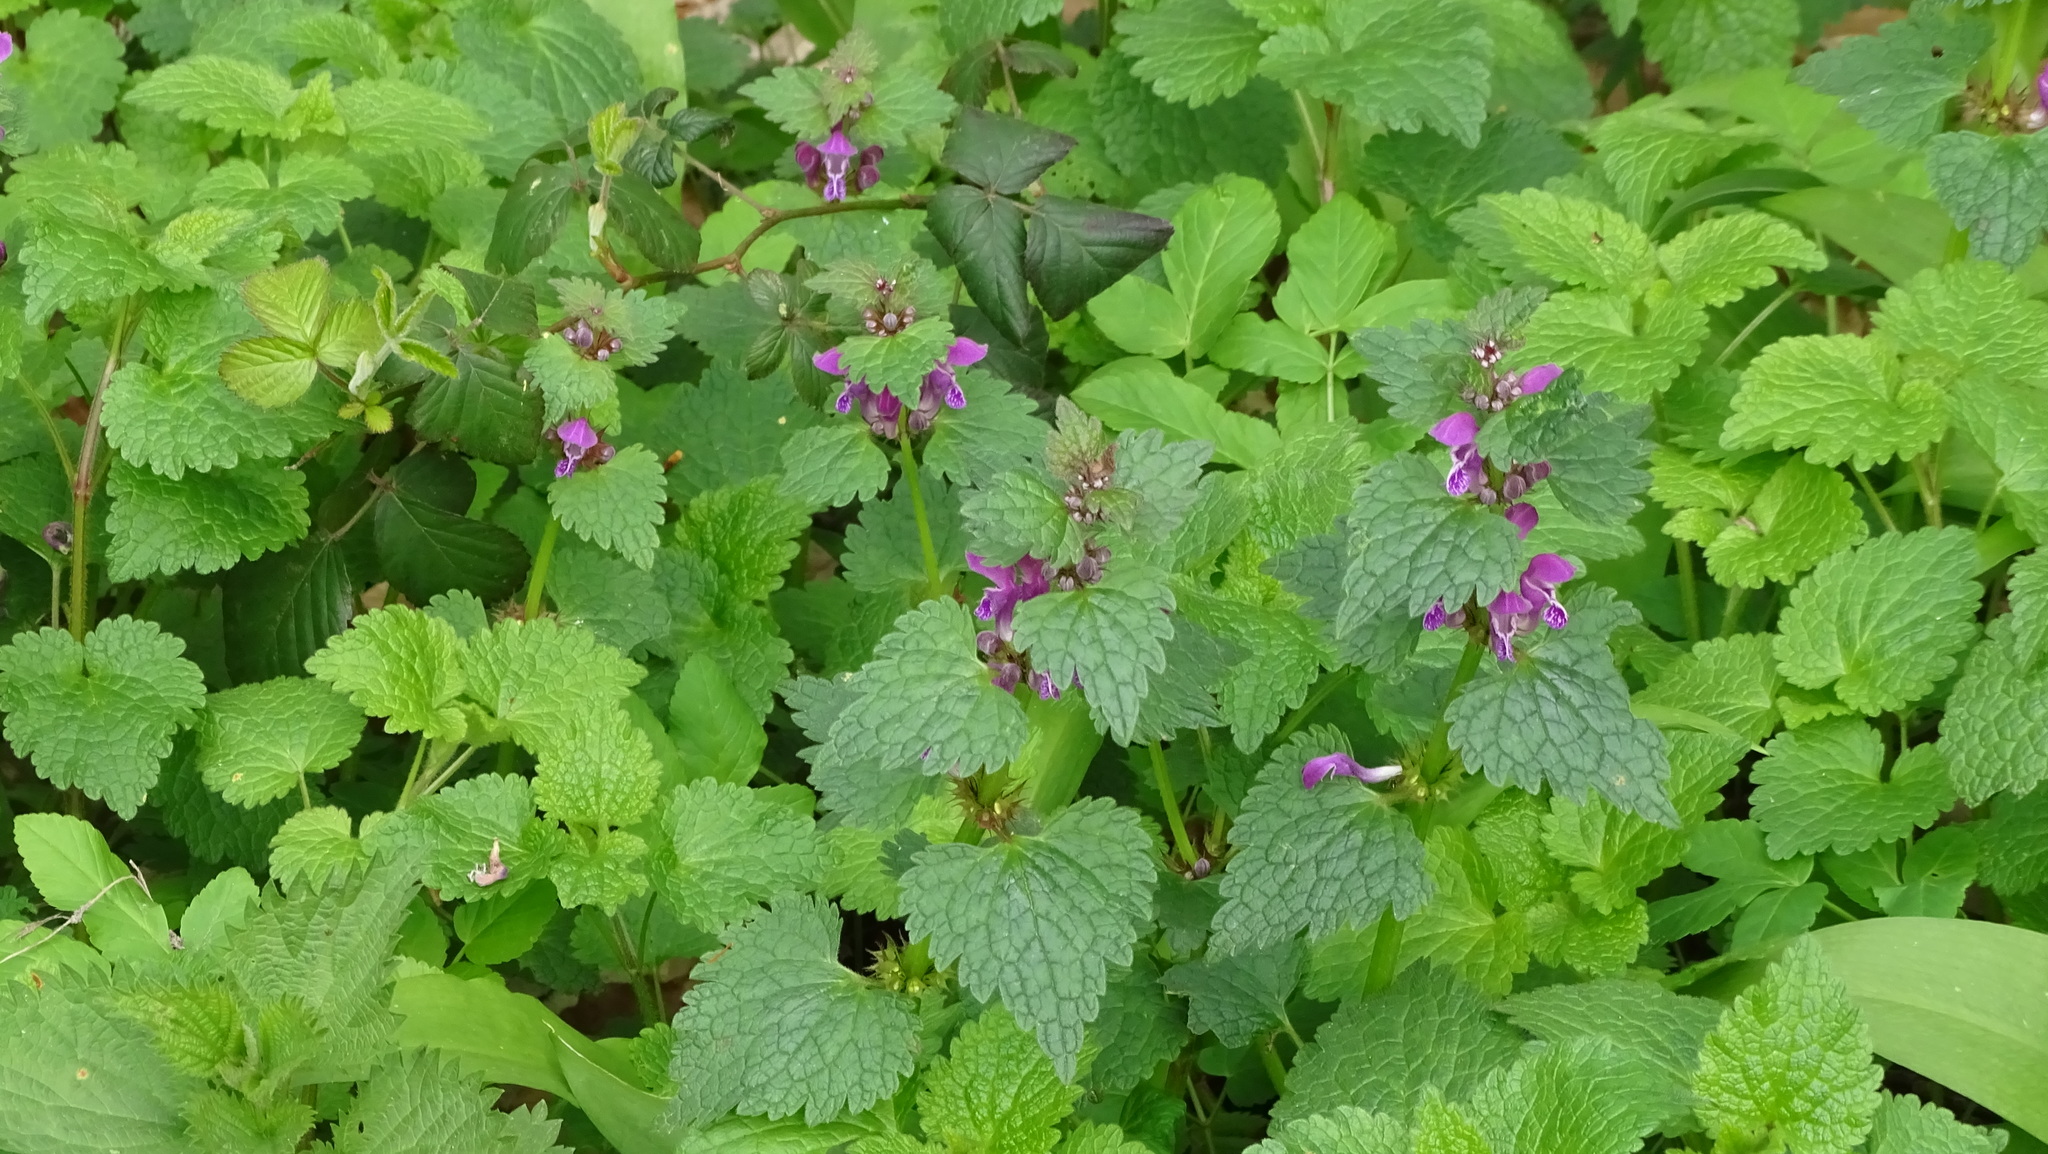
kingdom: Plantae
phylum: Tracheophyta
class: Magnoliopsida
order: Lamiales
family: Lamiaceae
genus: Lamium
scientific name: Lamium maculatum
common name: Spotted dead-nettle
